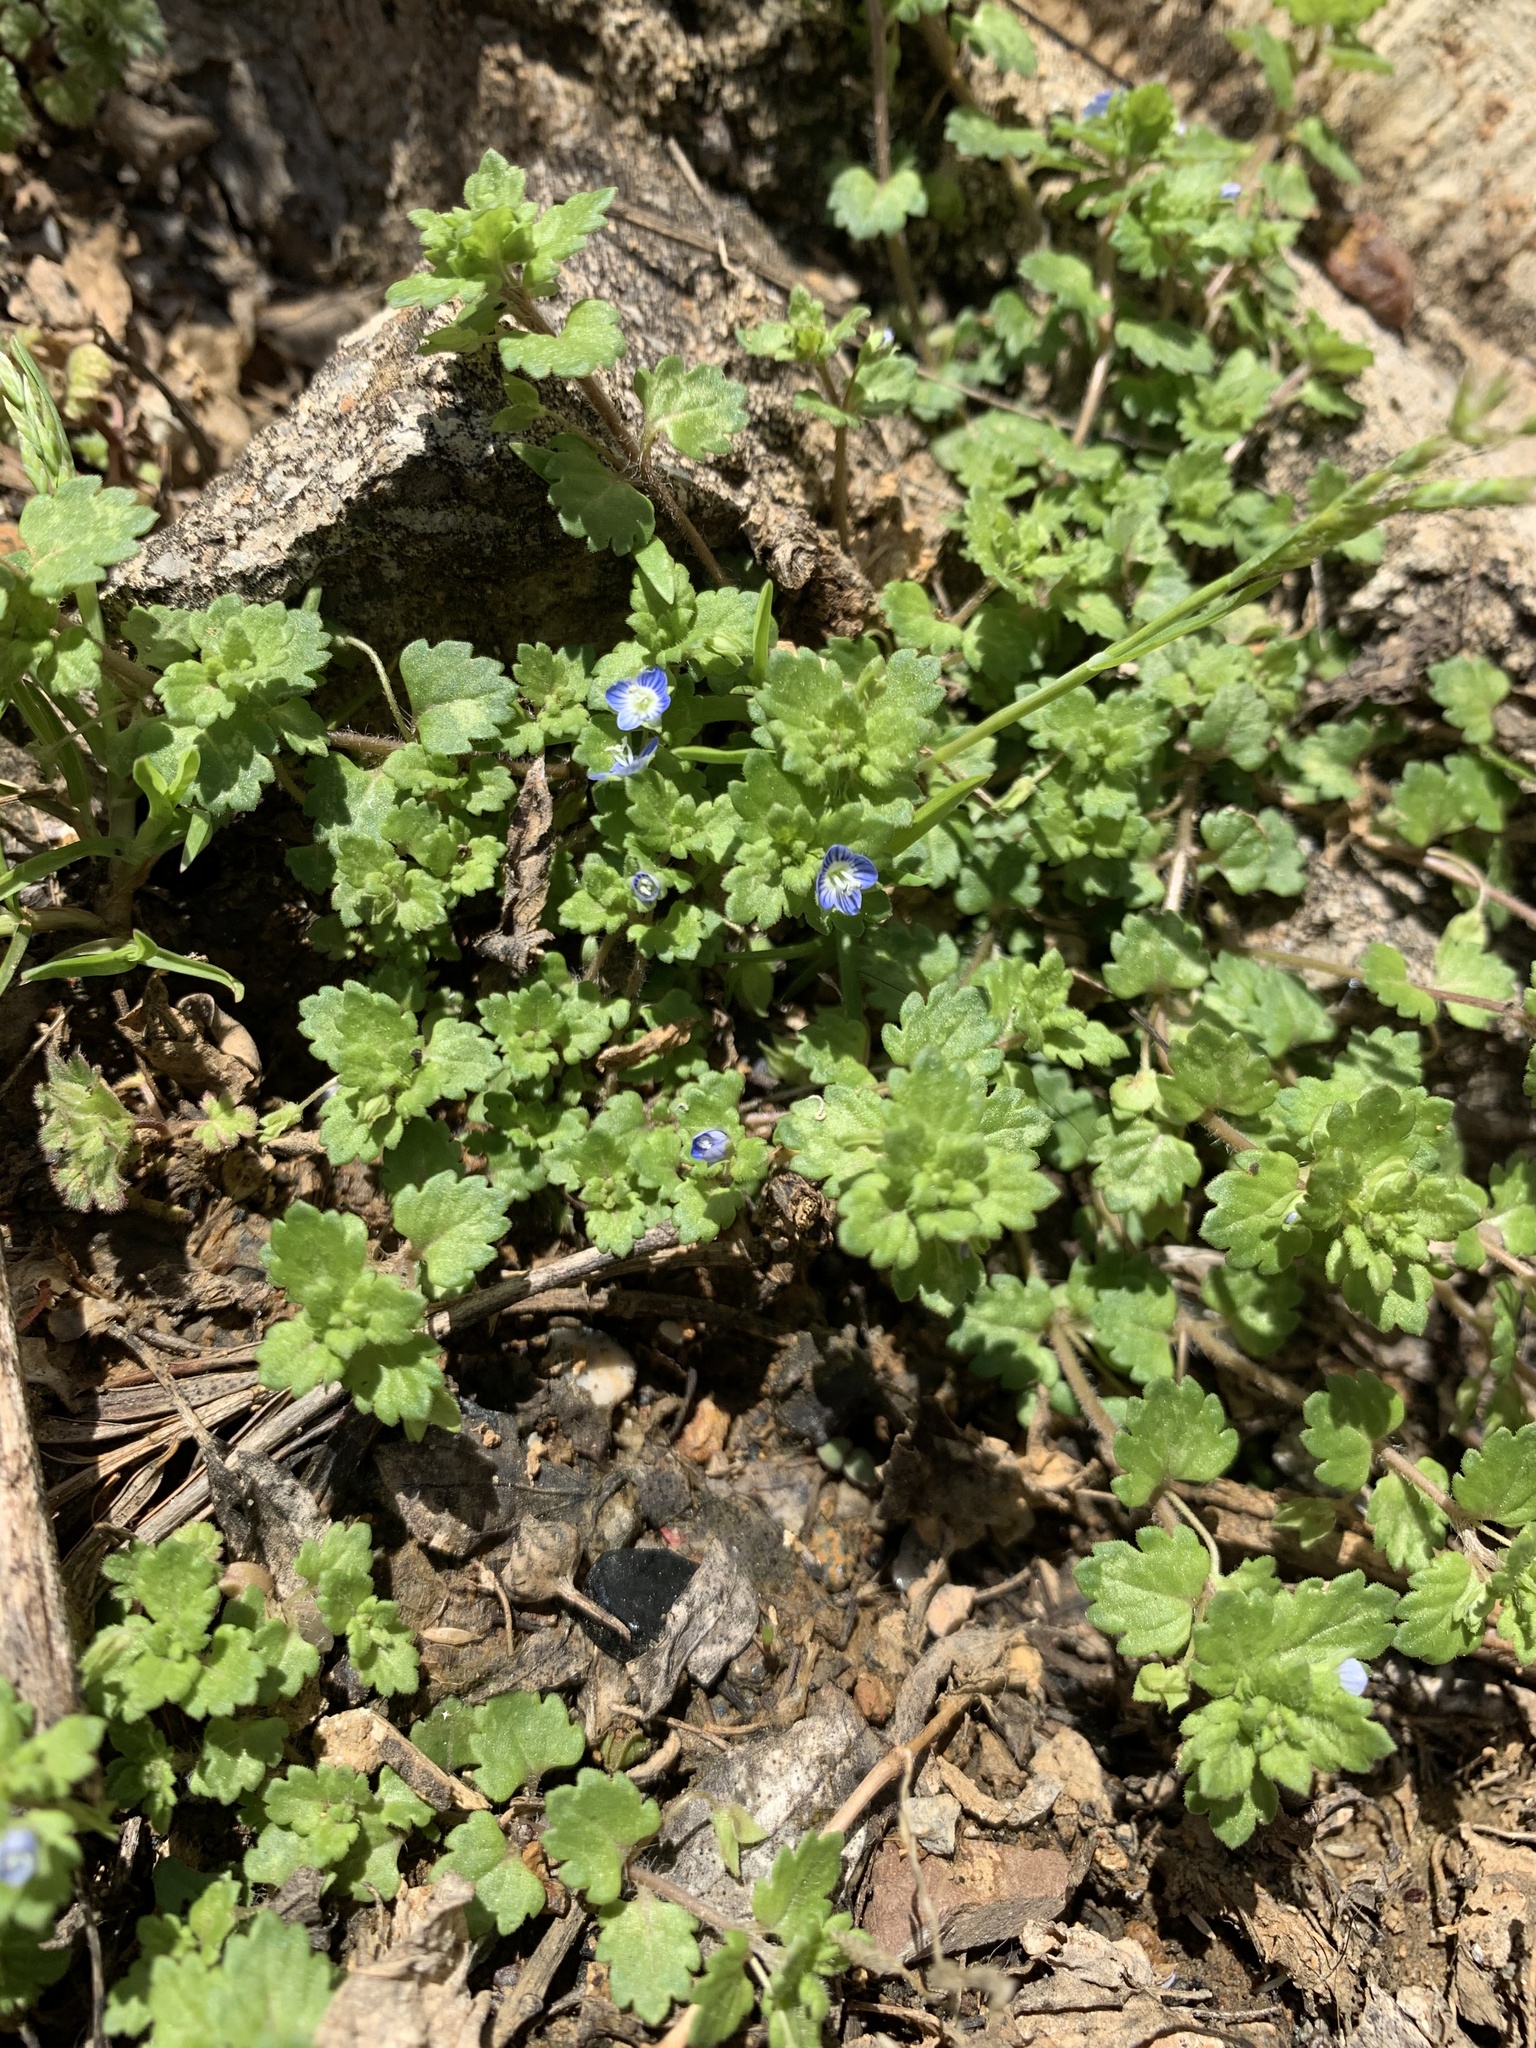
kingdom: Plantae
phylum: Tracheophyta
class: Magnoliopsida
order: Lamiales
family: Plantaginaceae
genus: Veronica
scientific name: Veronica persica
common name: Common field-speedwell
